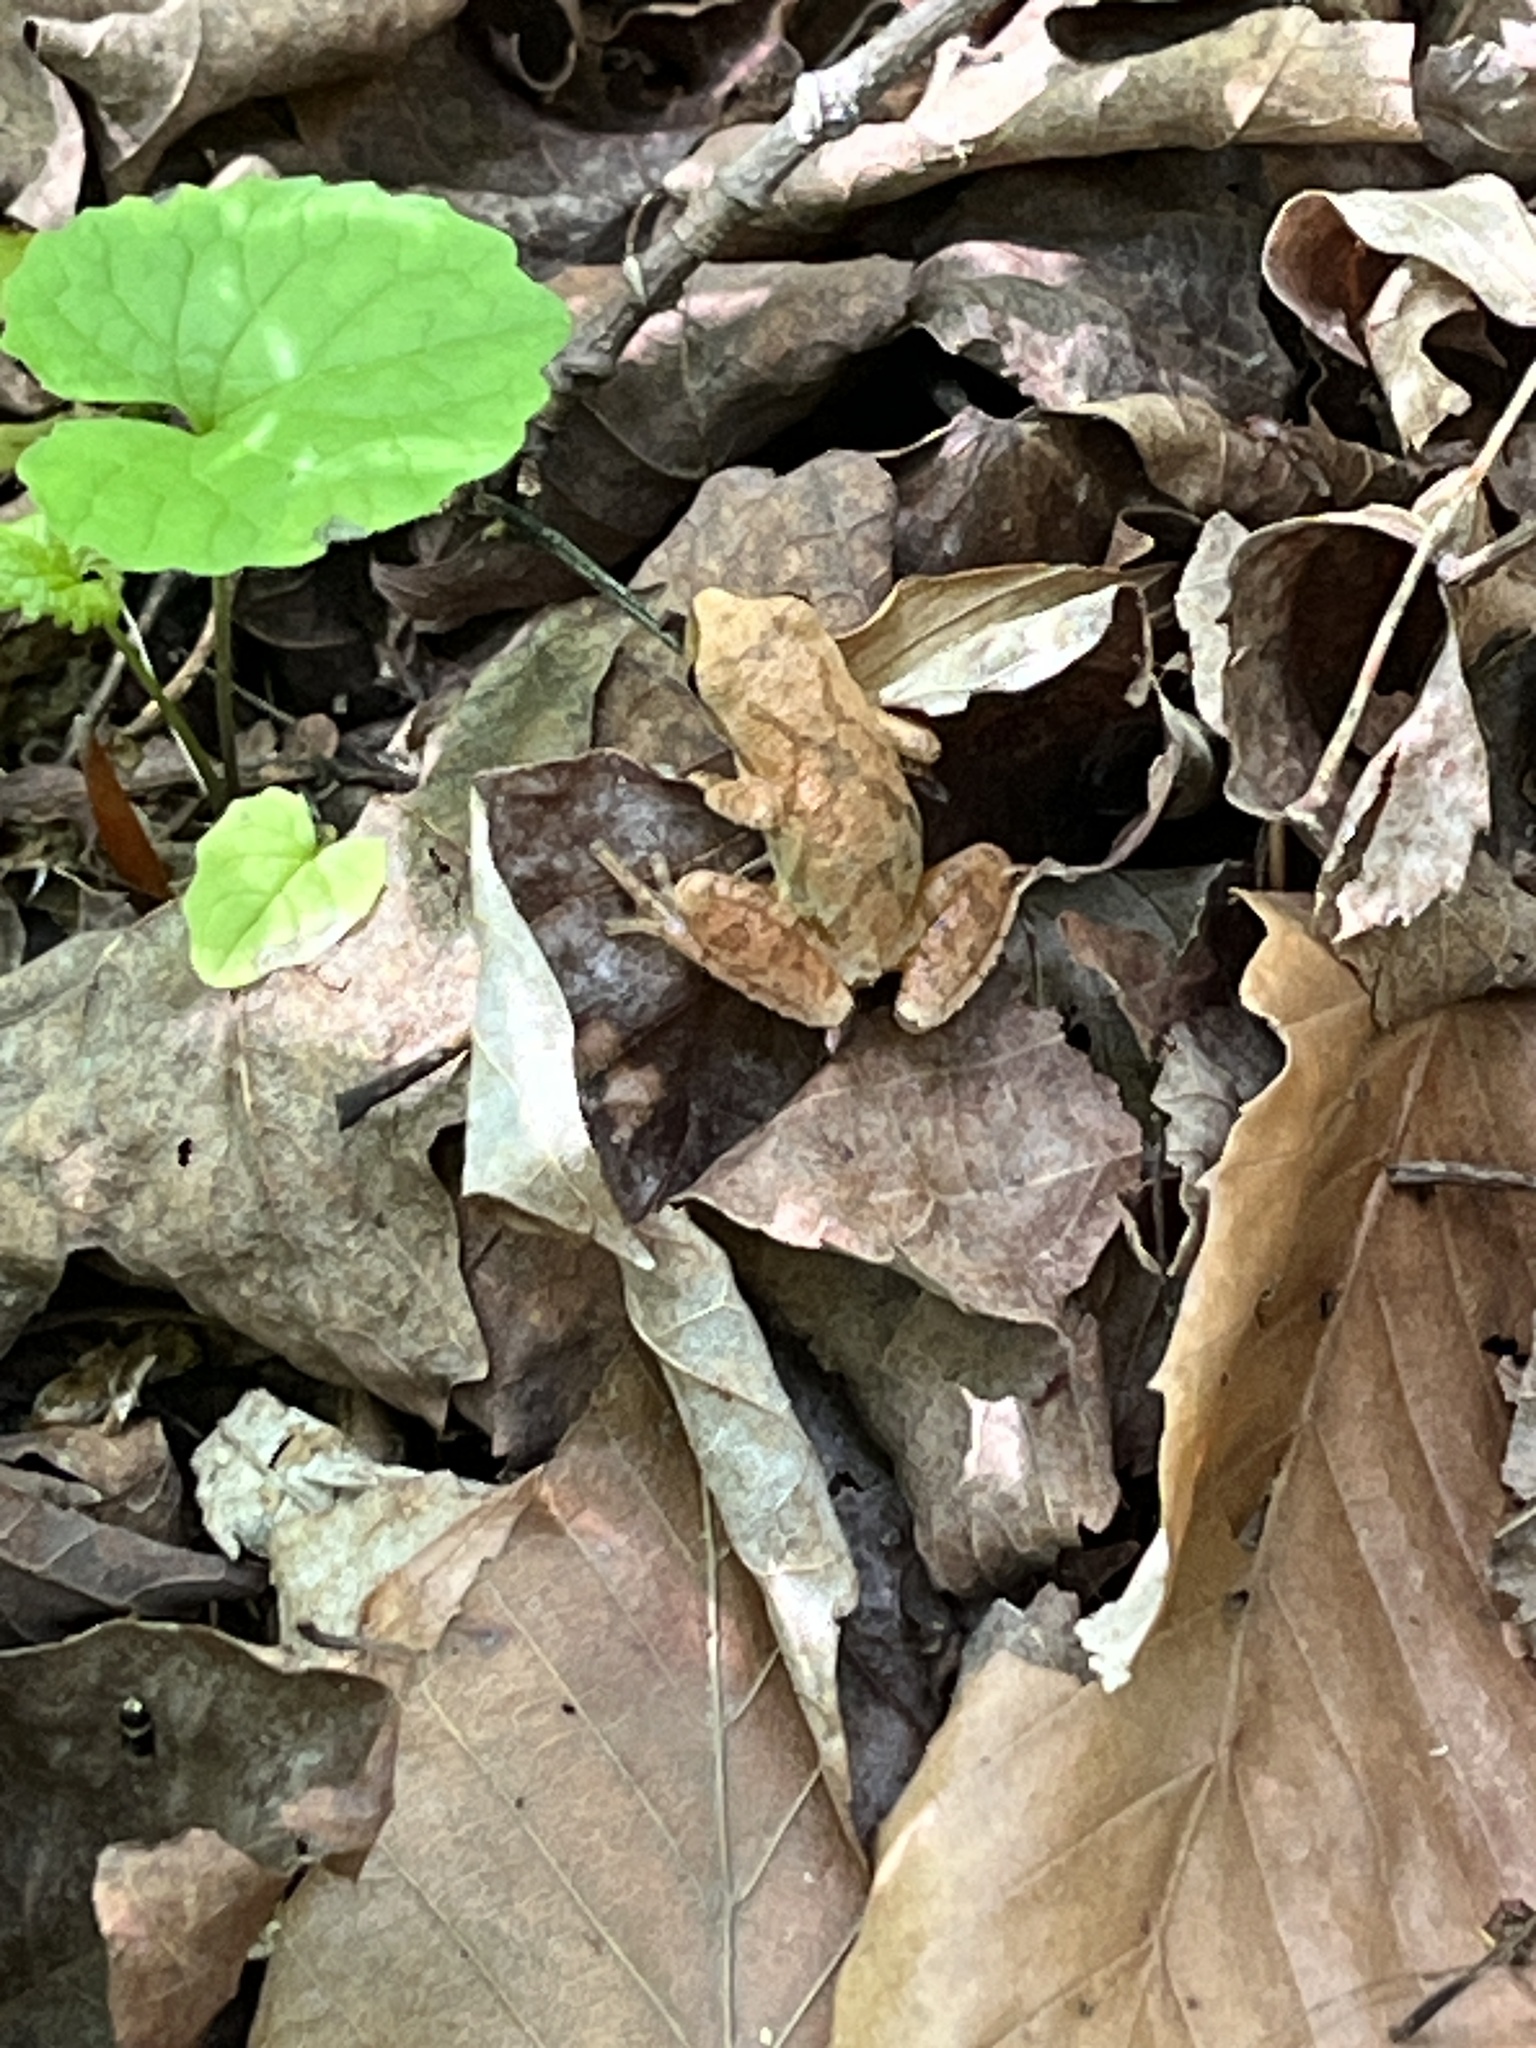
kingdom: Animalia
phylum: Chordata
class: Amphibia
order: Anura
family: Hylidae
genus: Pseudacris
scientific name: Pseudacris crucifer
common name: Spring peeper
